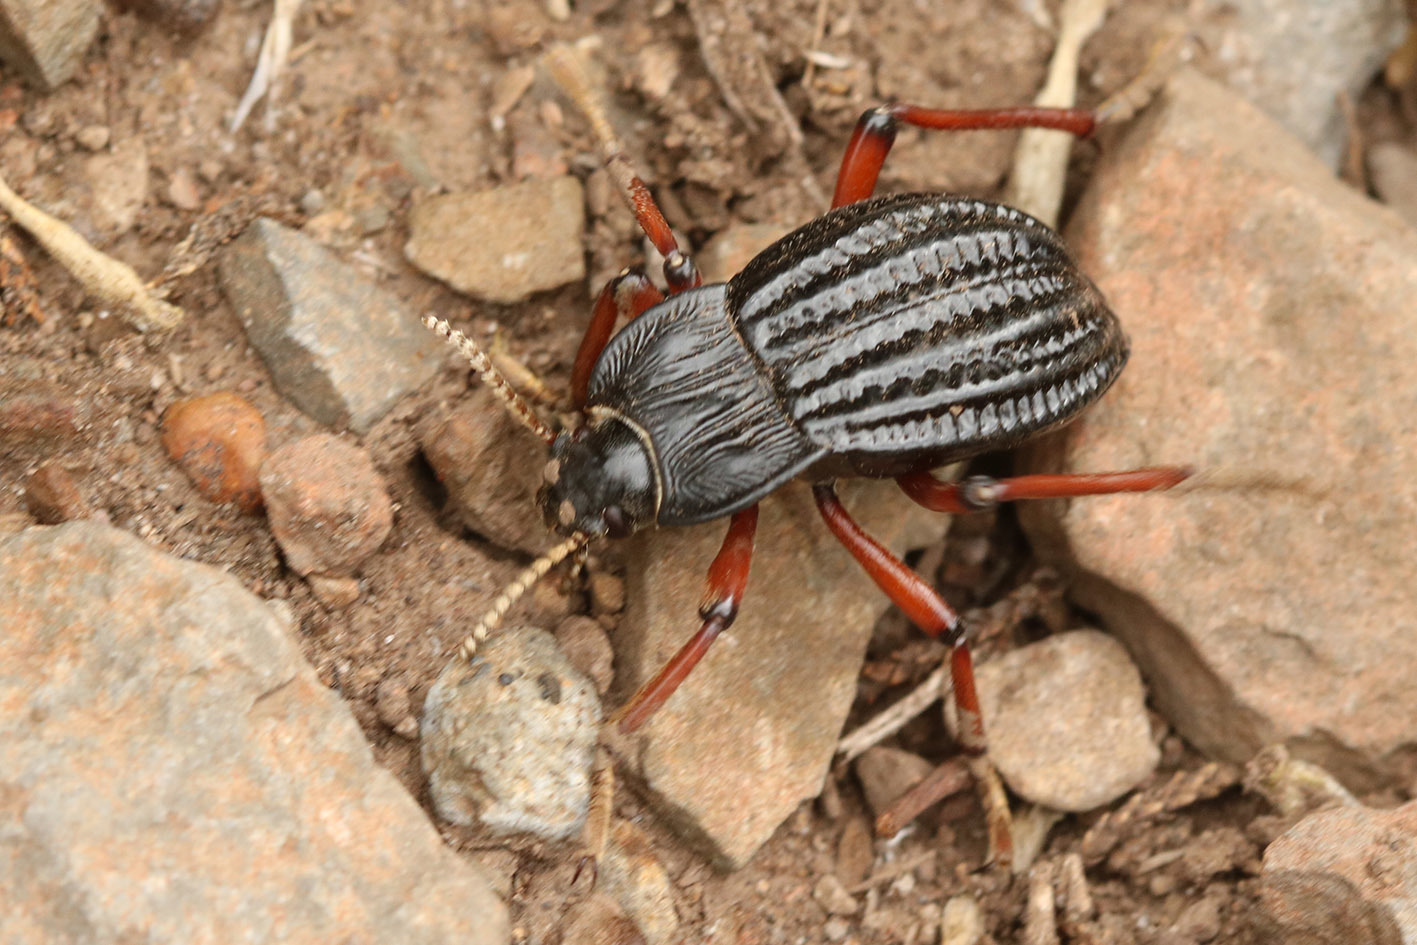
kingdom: Animalia
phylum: Arthropoda
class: Insecta
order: Coleoptera
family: Tenebrionidae
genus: Epipedonota
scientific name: Epipedonota
